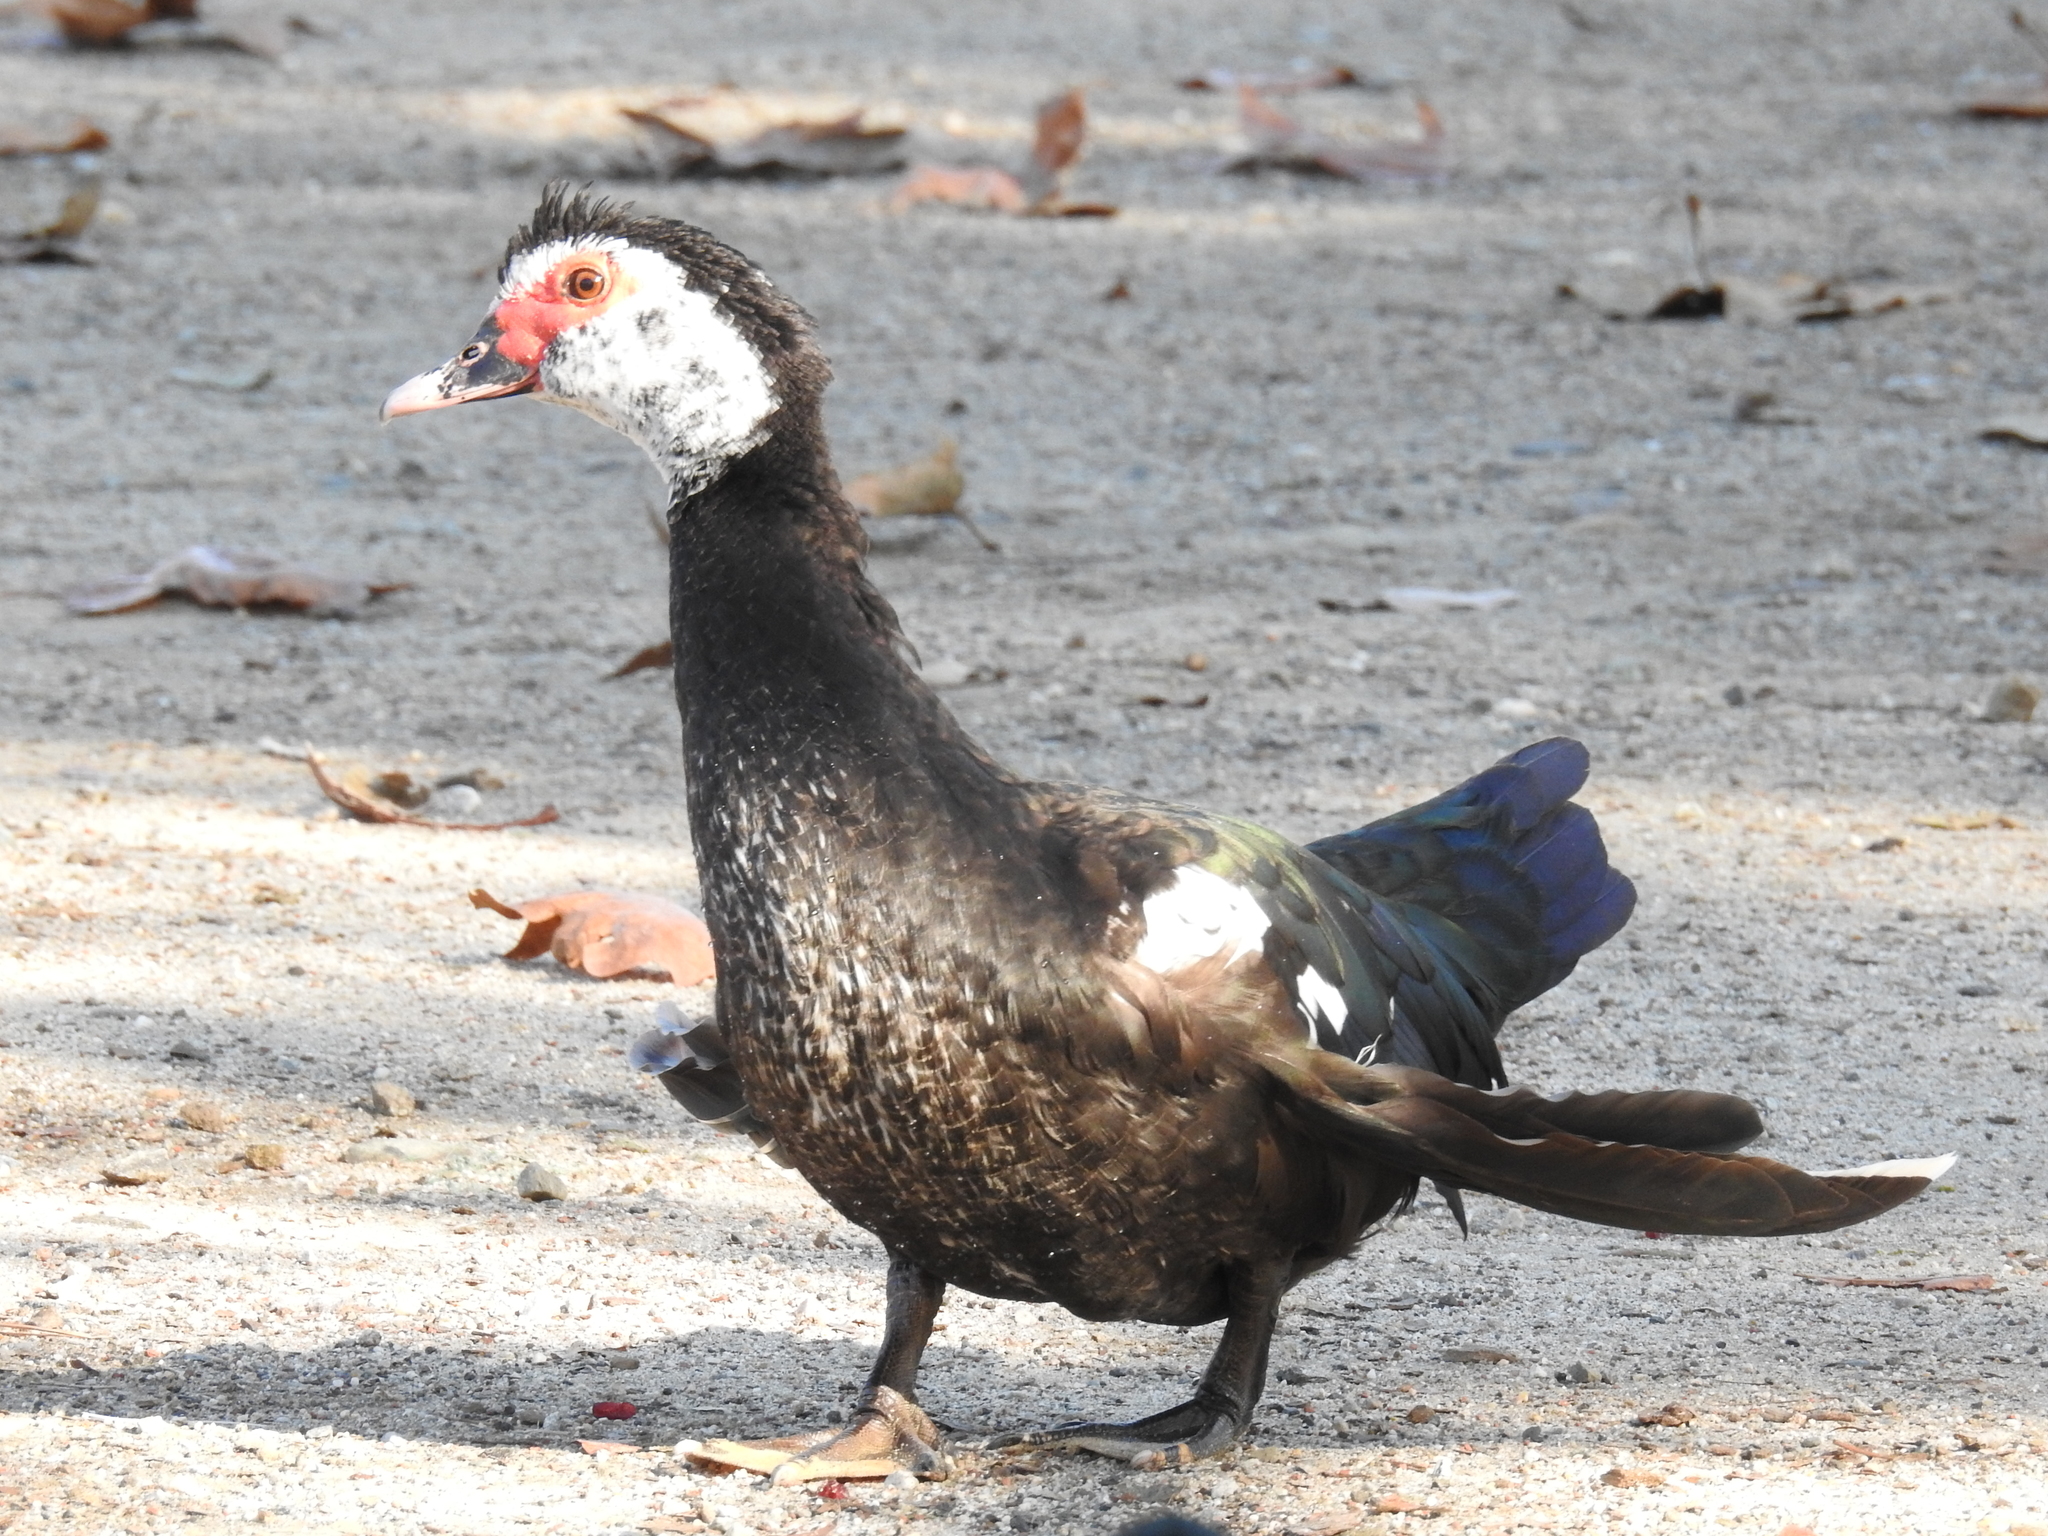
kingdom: Animalia
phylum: Chordata
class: Aves
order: Anseriformes
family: Anatidae
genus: Cairina
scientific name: Cairina moschata
